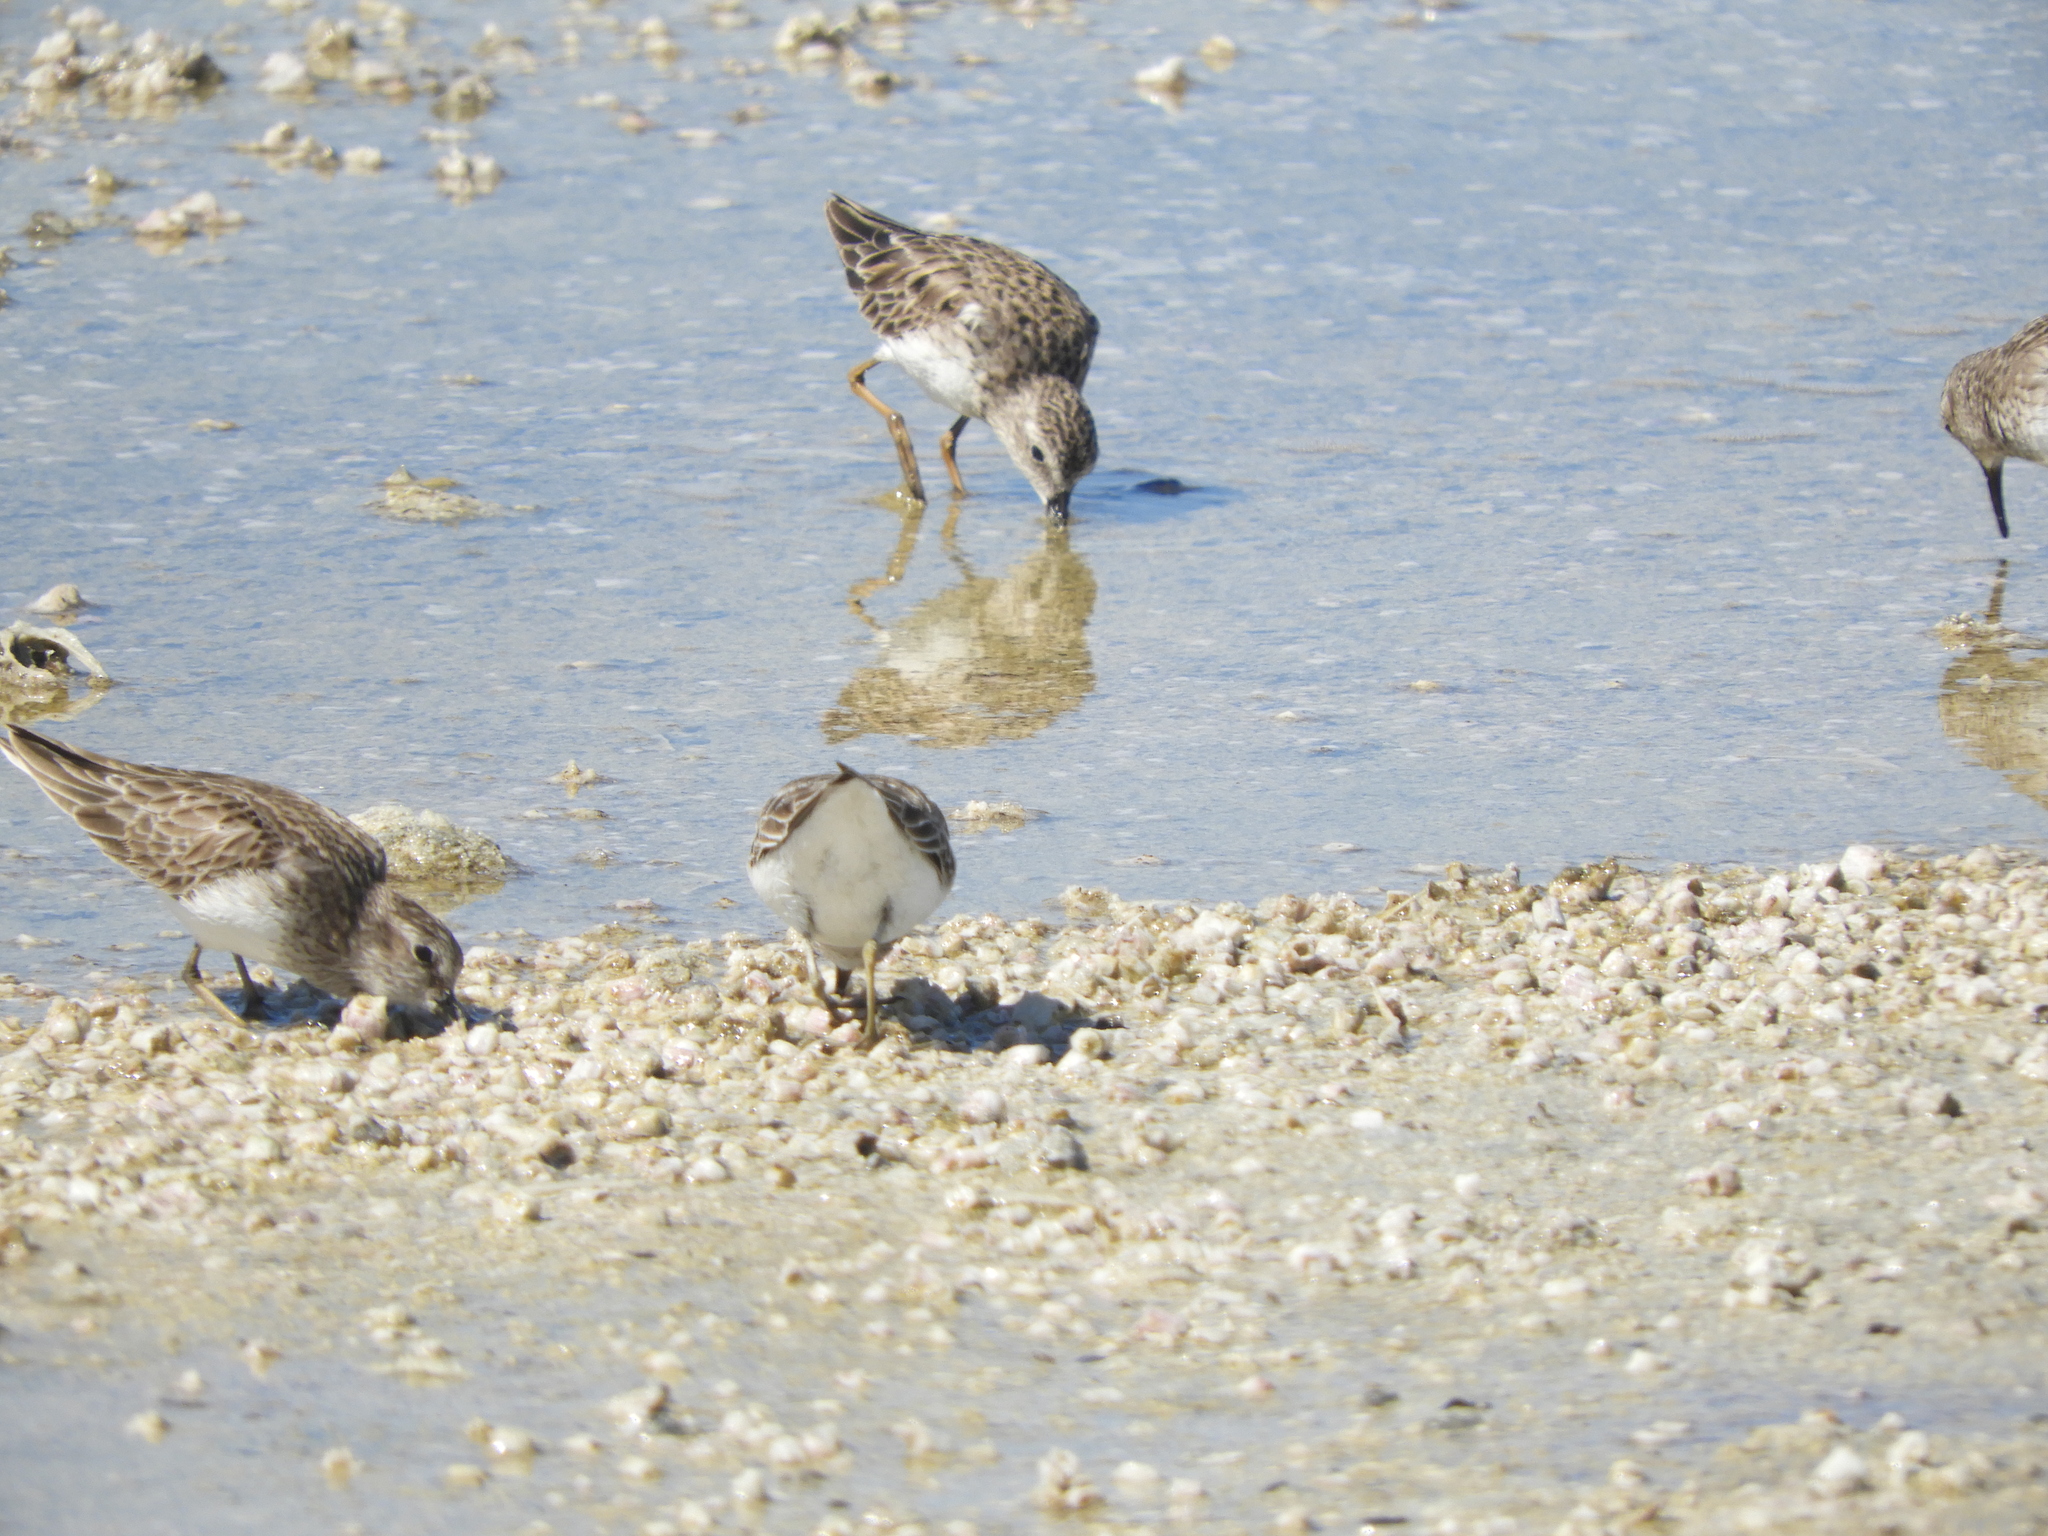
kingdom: Animalia
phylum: Chordata
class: Aves
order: Charadriiformes
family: Scolopacidae
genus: Calidris
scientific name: Calidris minutilla
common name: Least sandpiper
